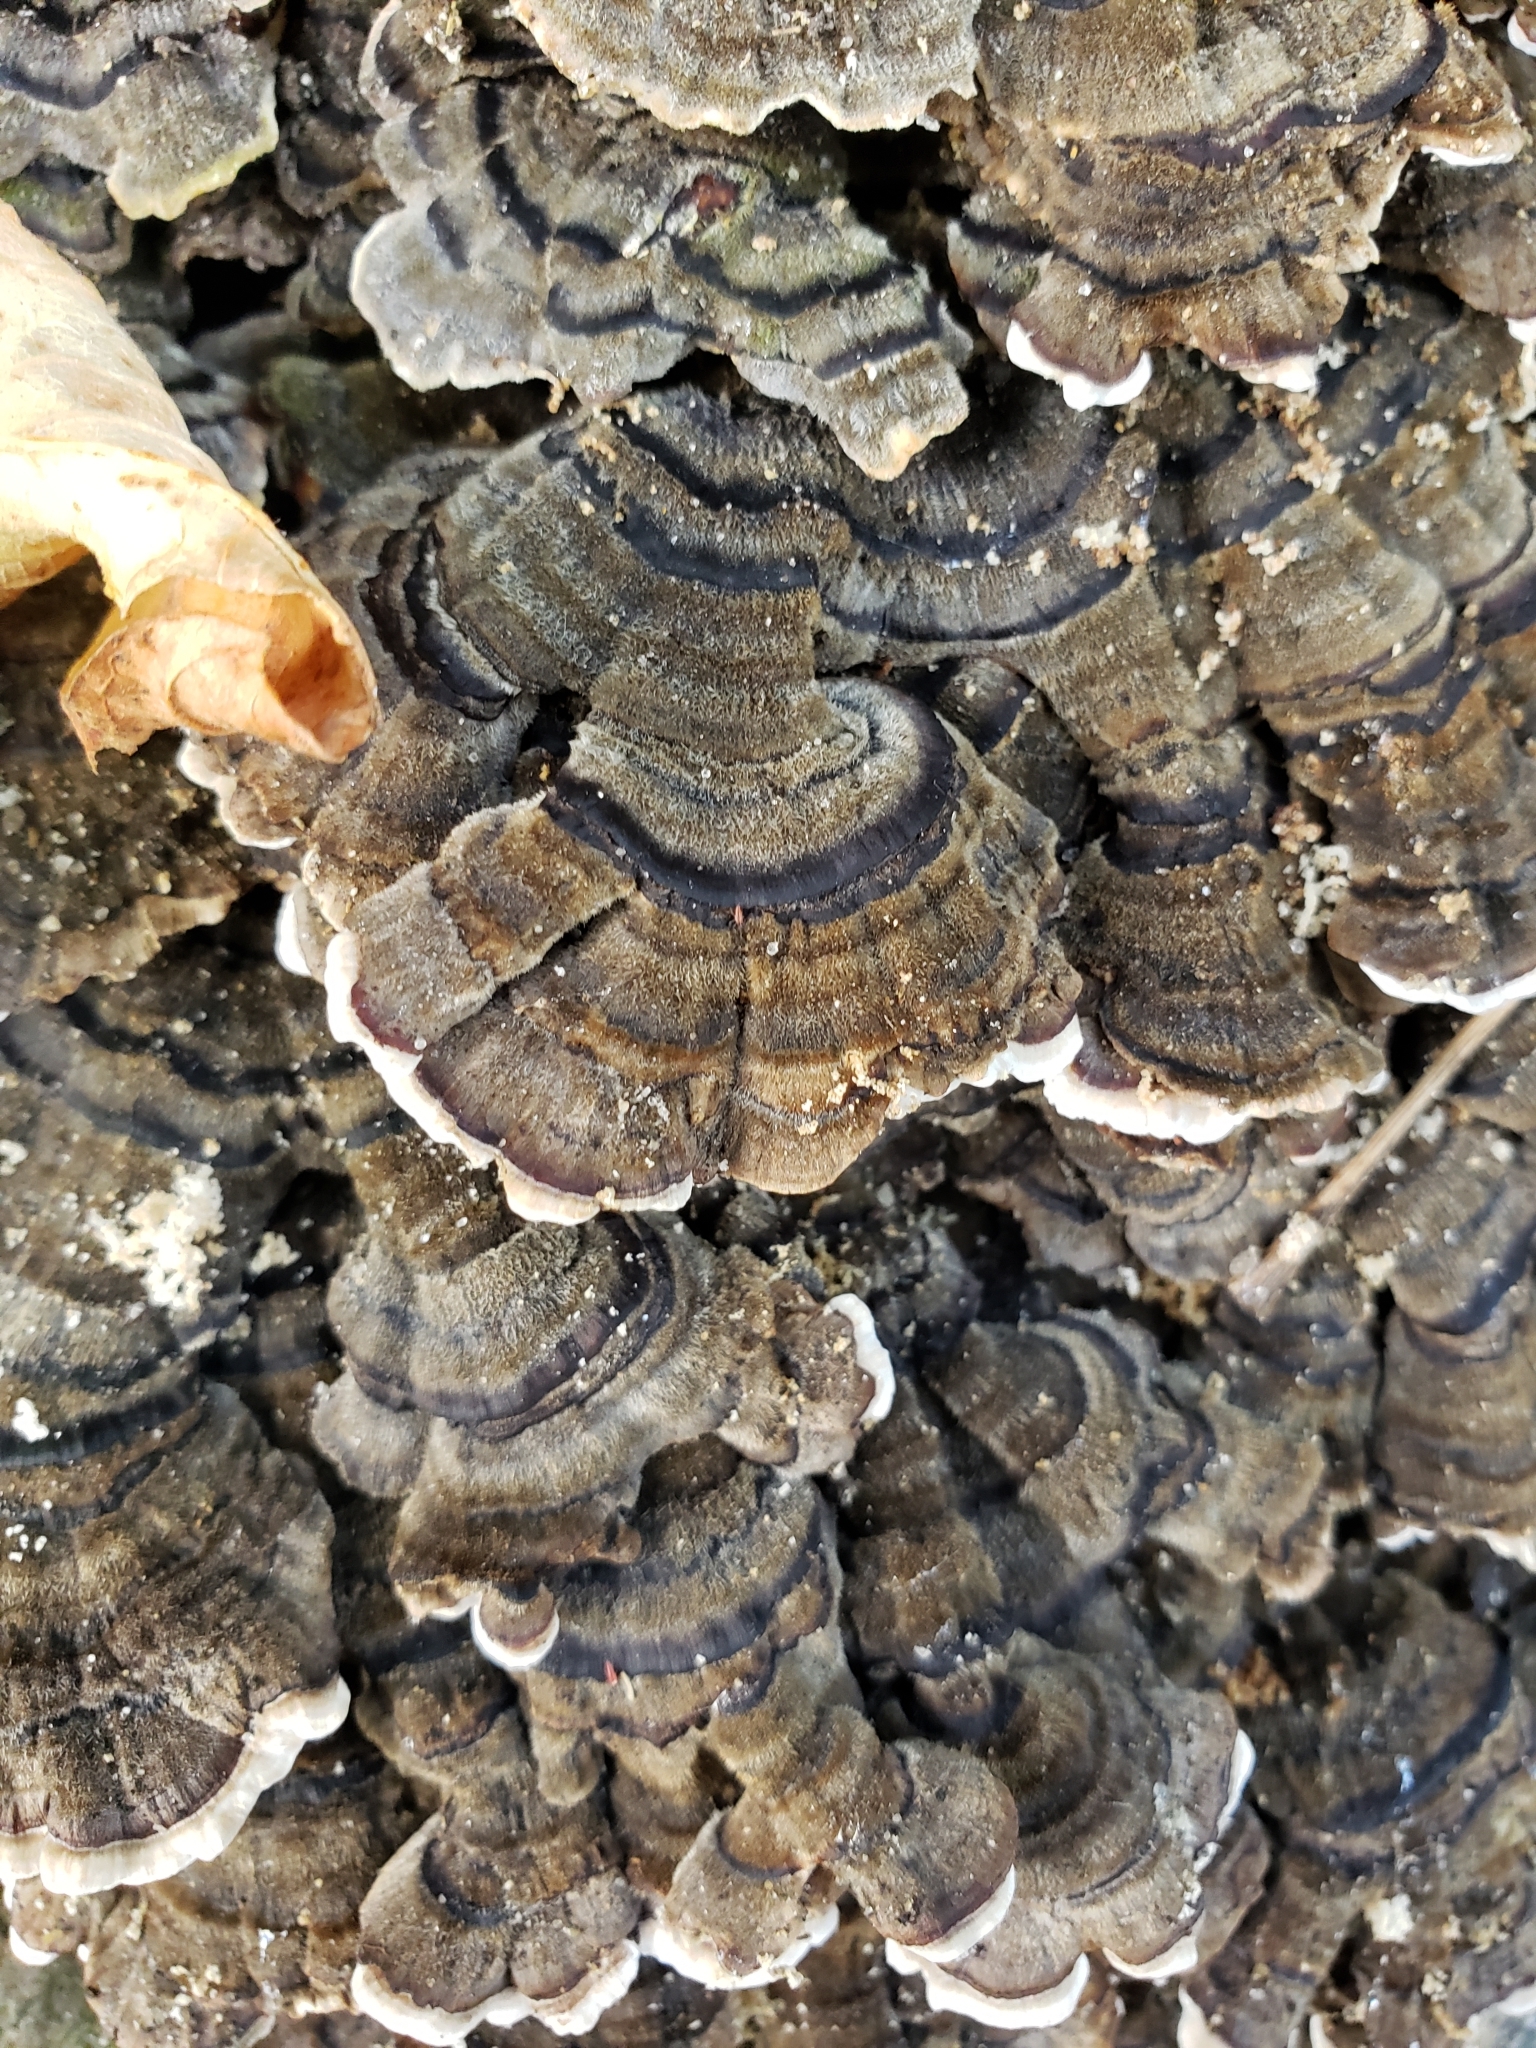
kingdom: Fungi
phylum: Basidiomycota
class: Agaricomycetes
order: Polyporales
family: Polyporaceae
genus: Trametes
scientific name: Trametes versicolor
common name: Turkeytail
